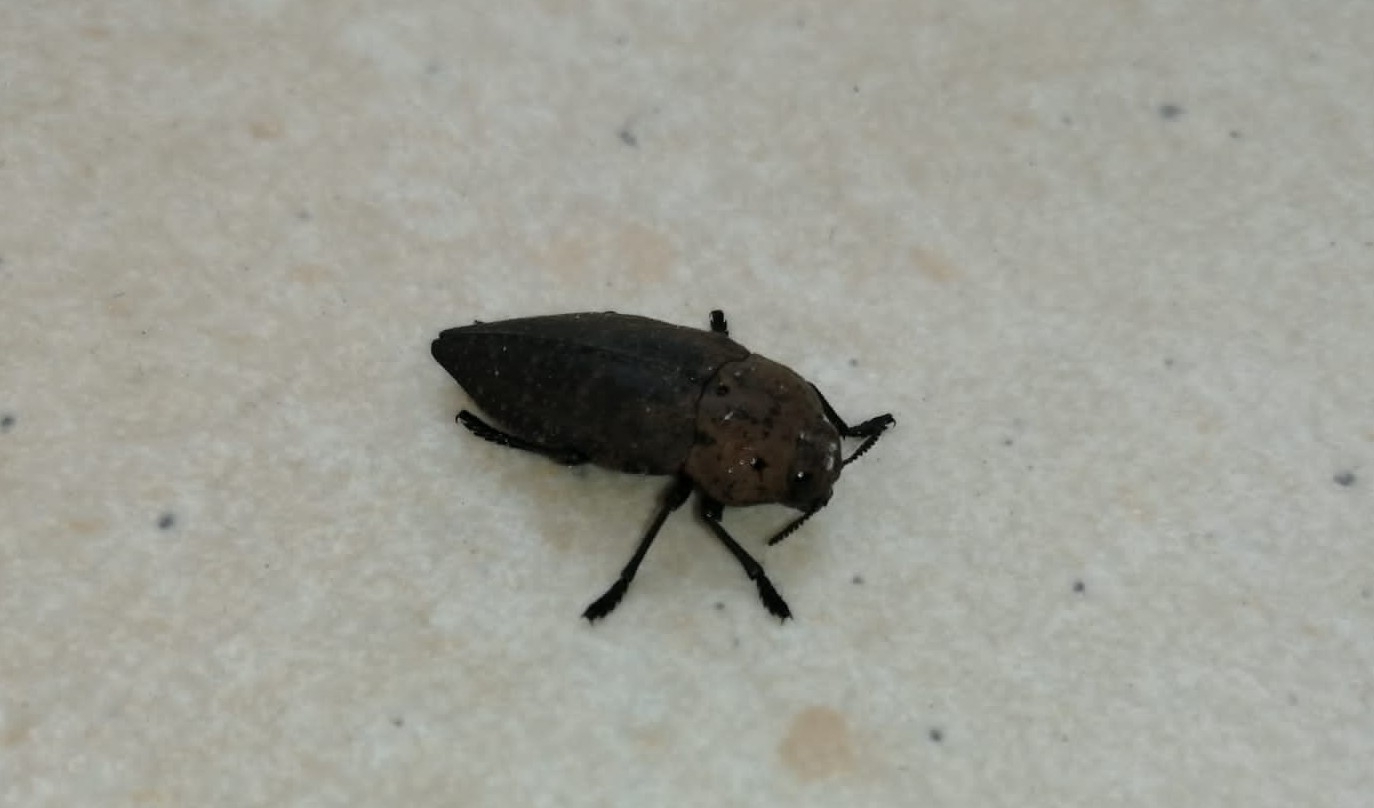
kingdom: Animalia
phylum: Arthropoda
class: Insecta
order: Coleoptera
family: Buprestidae
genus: Capnodis
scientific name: Capnodis tenebricosa
